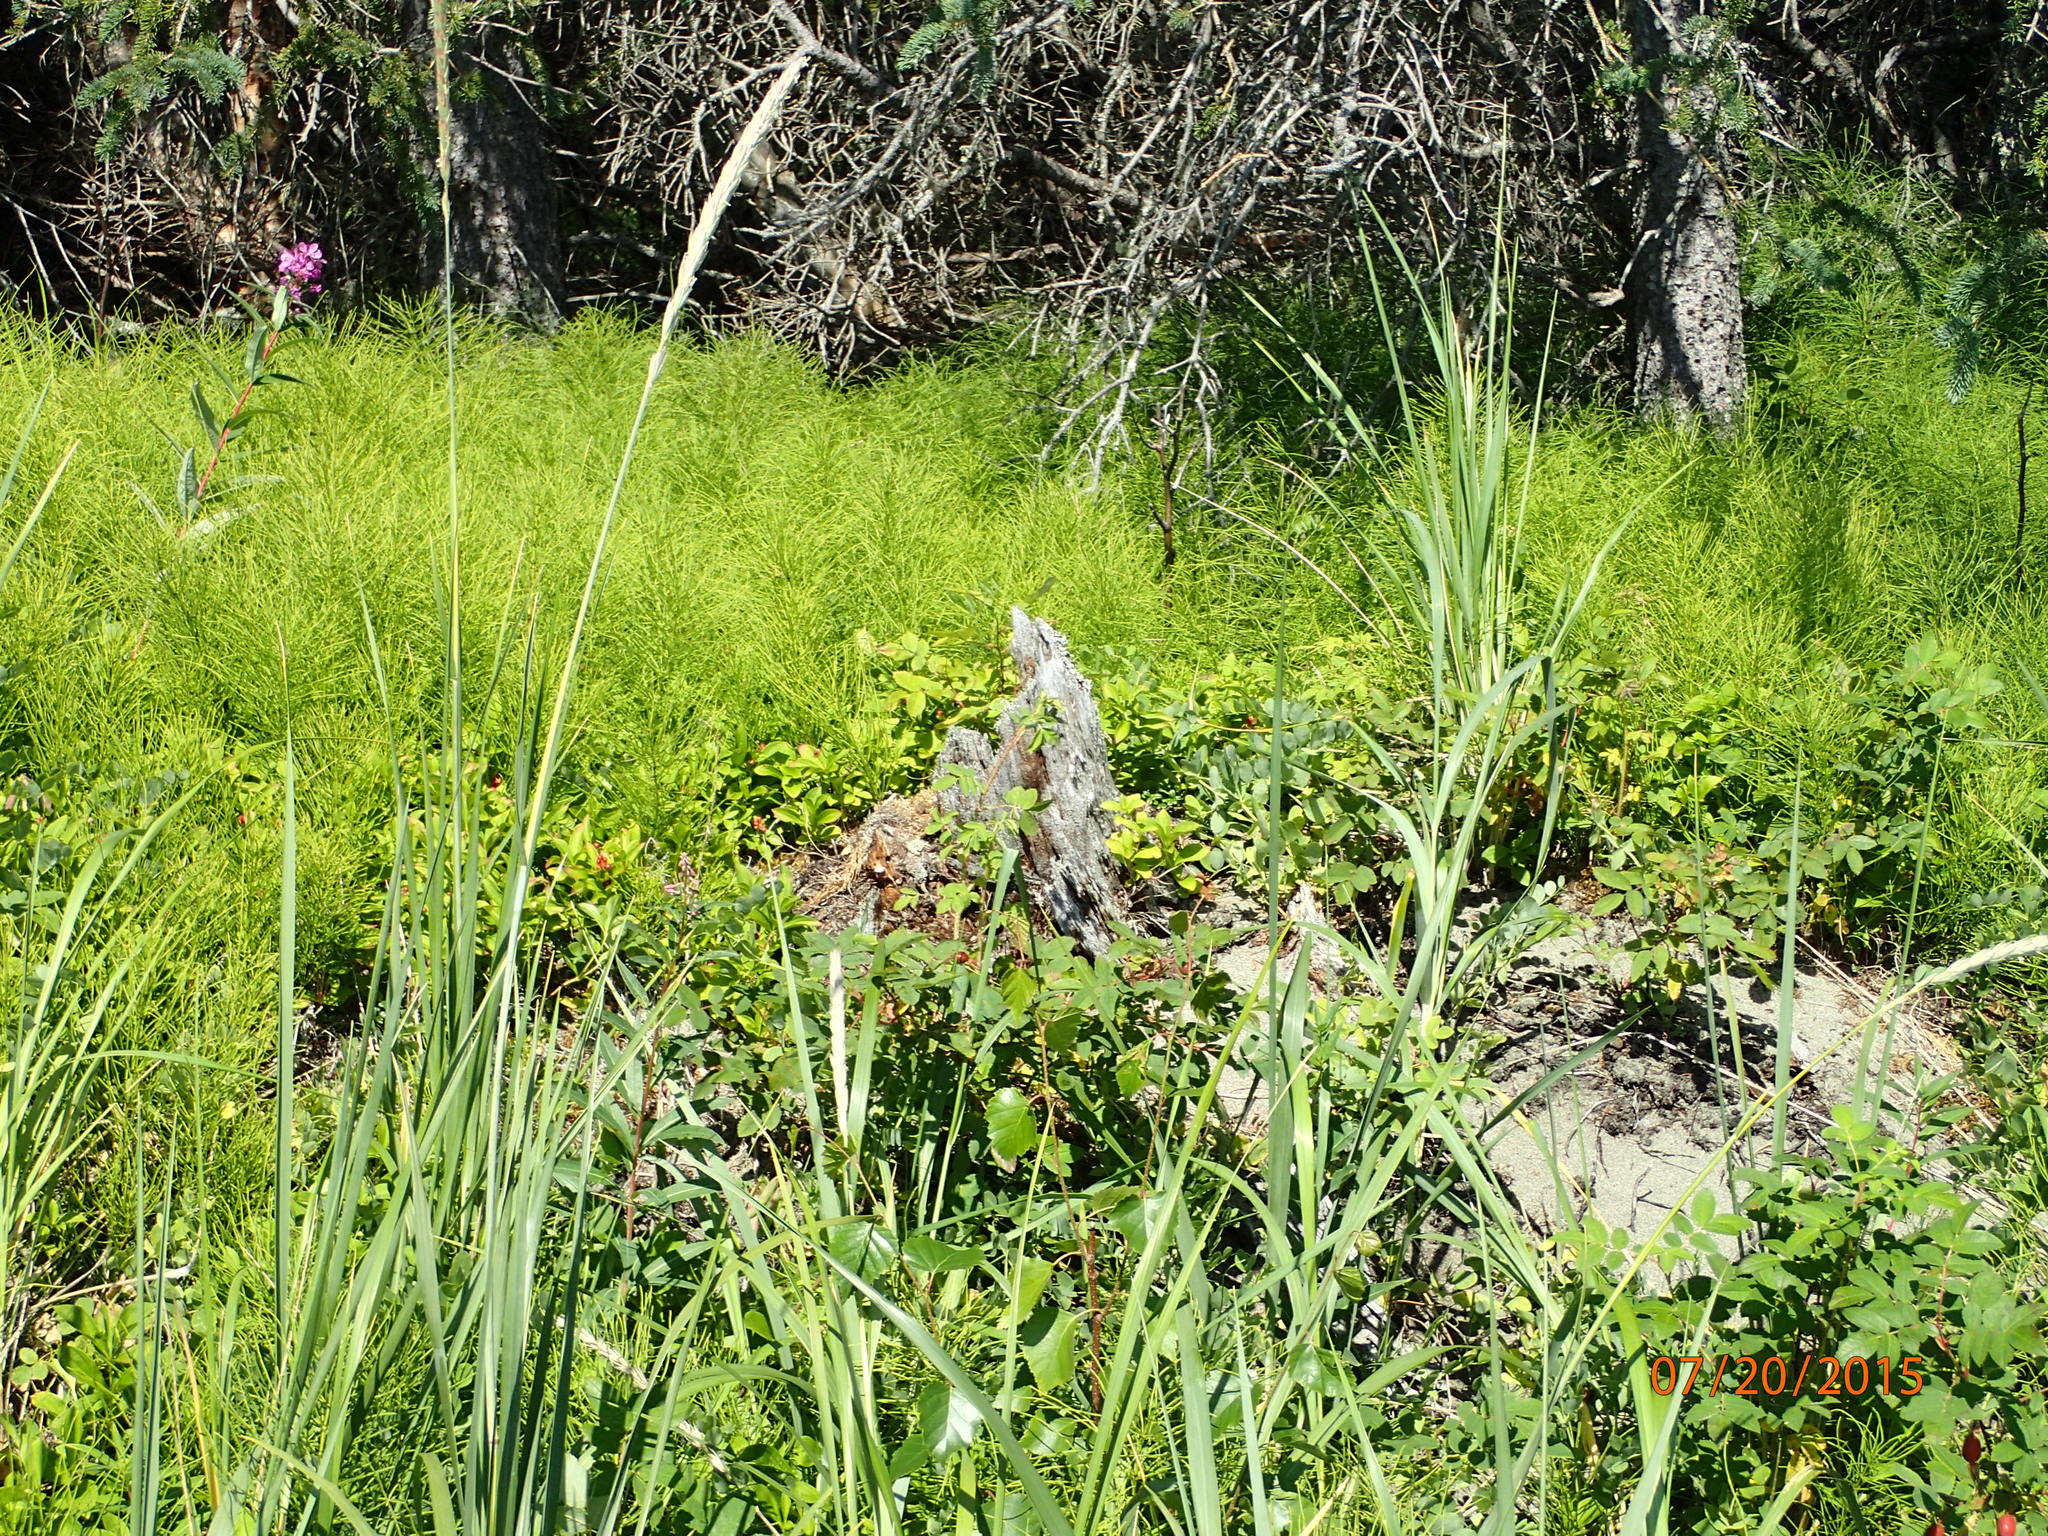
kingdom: Plantae
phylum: Tracheophyta
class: Liliopsida
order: Poales
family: Poaceae
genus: Leymus
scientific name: Leymus mollis
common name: American dune grass
